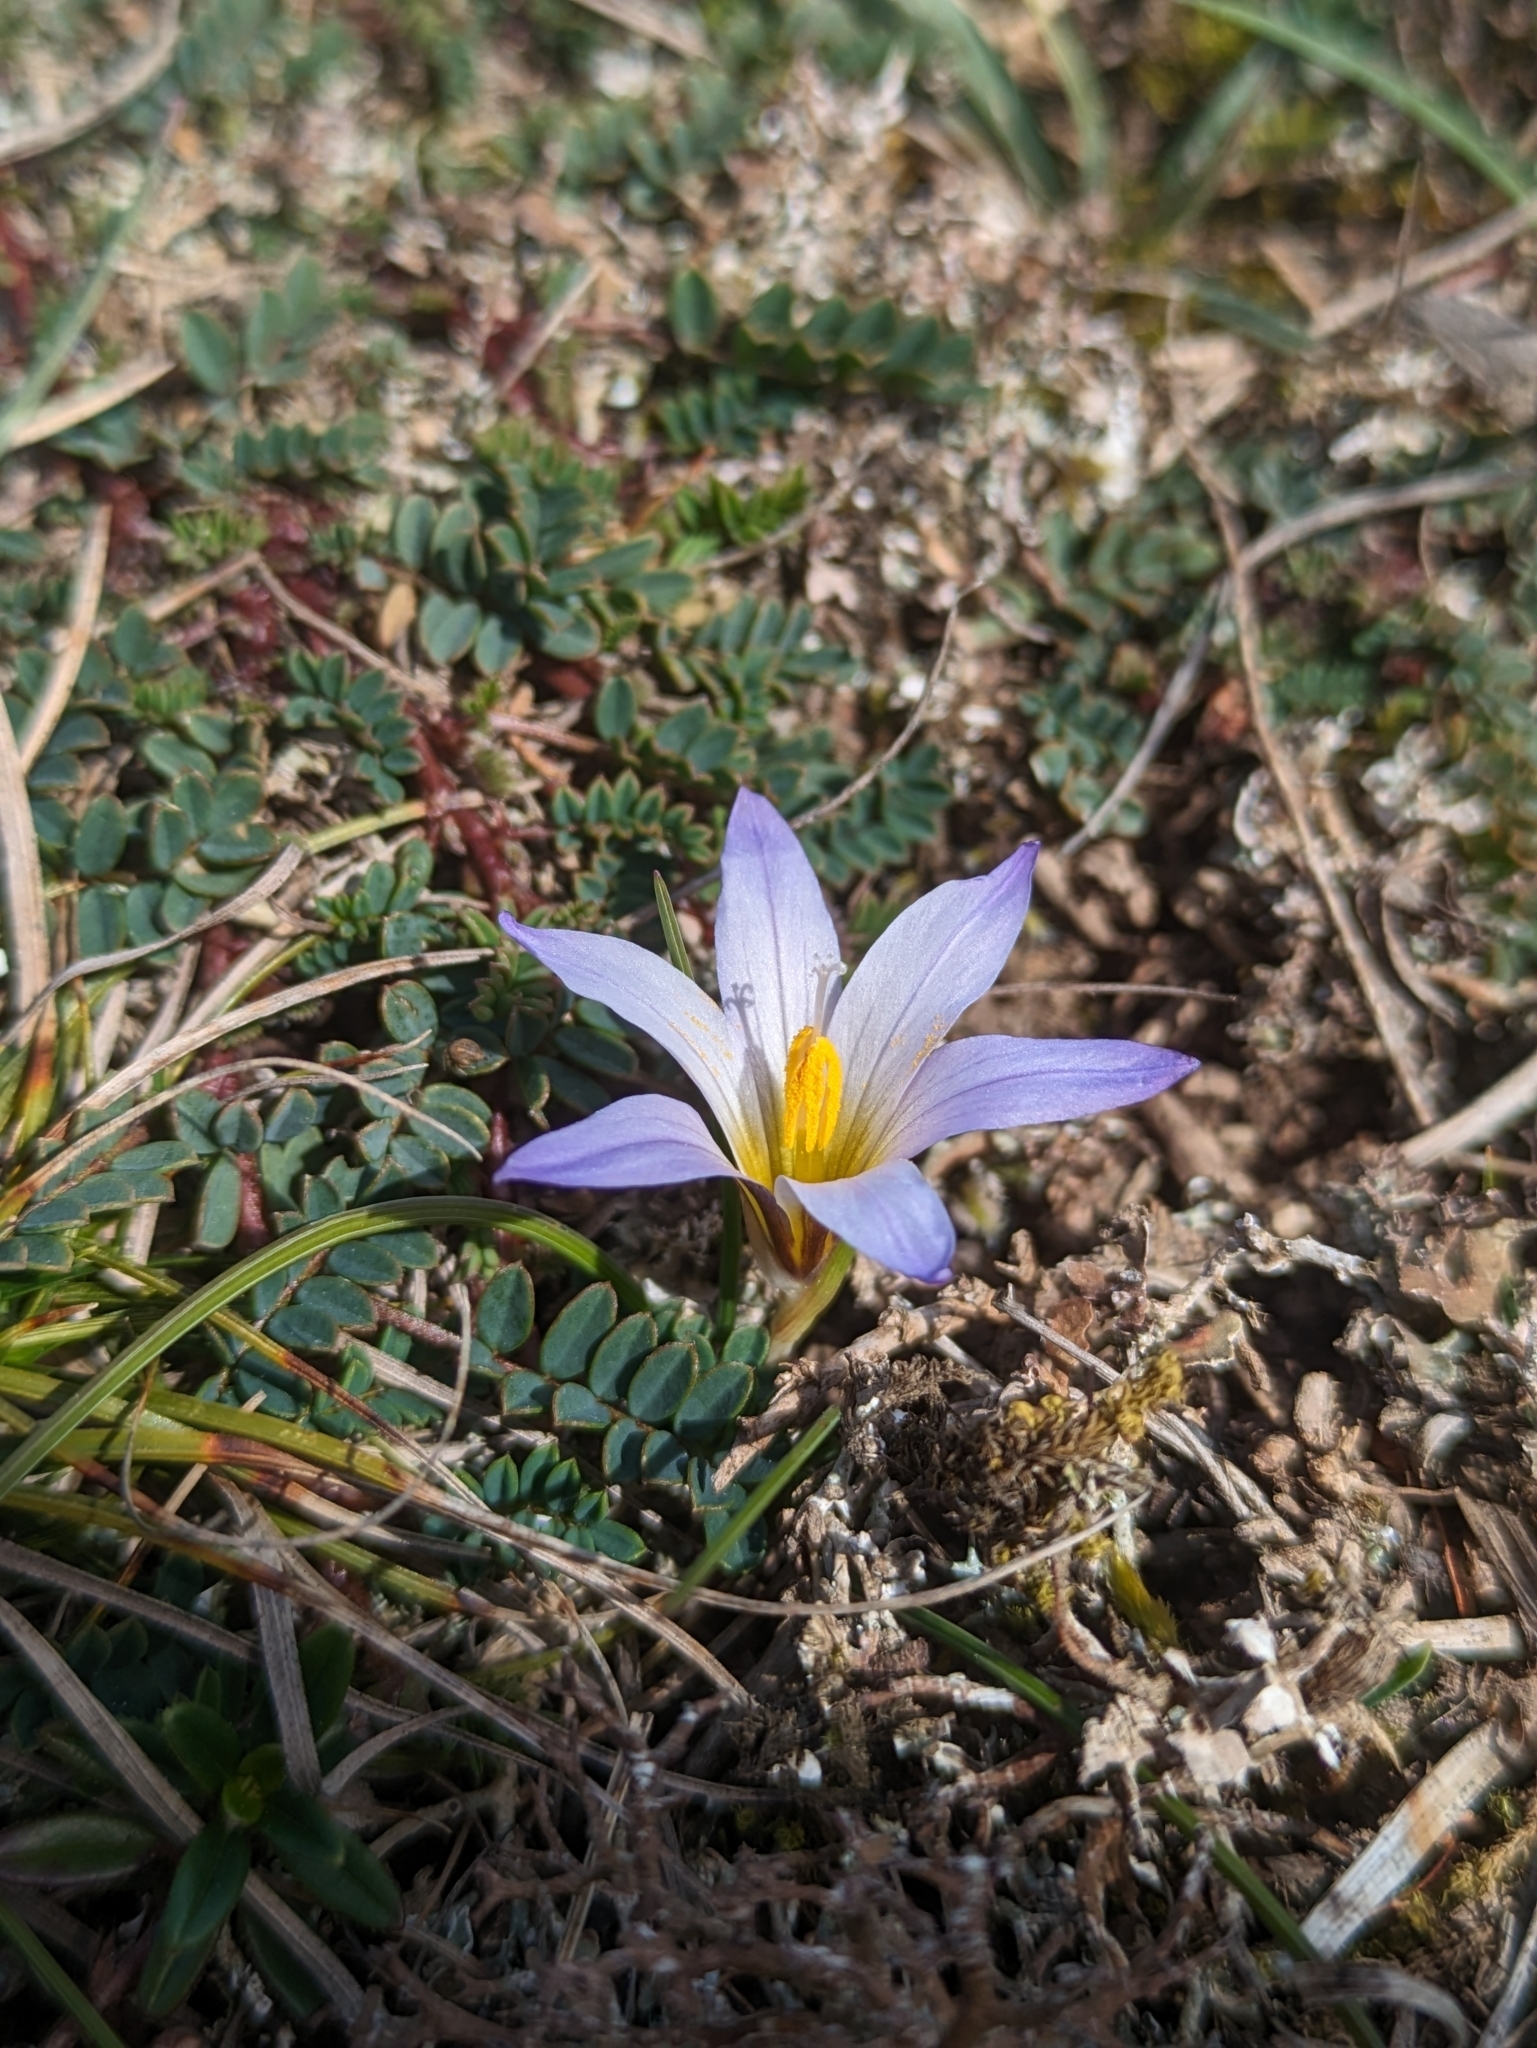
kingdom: Plantae
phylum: Tracheophyta
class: Liliopsida
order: Asparagales
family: Iridaceae
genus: Romulea
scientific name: Romulea bulbocodium
